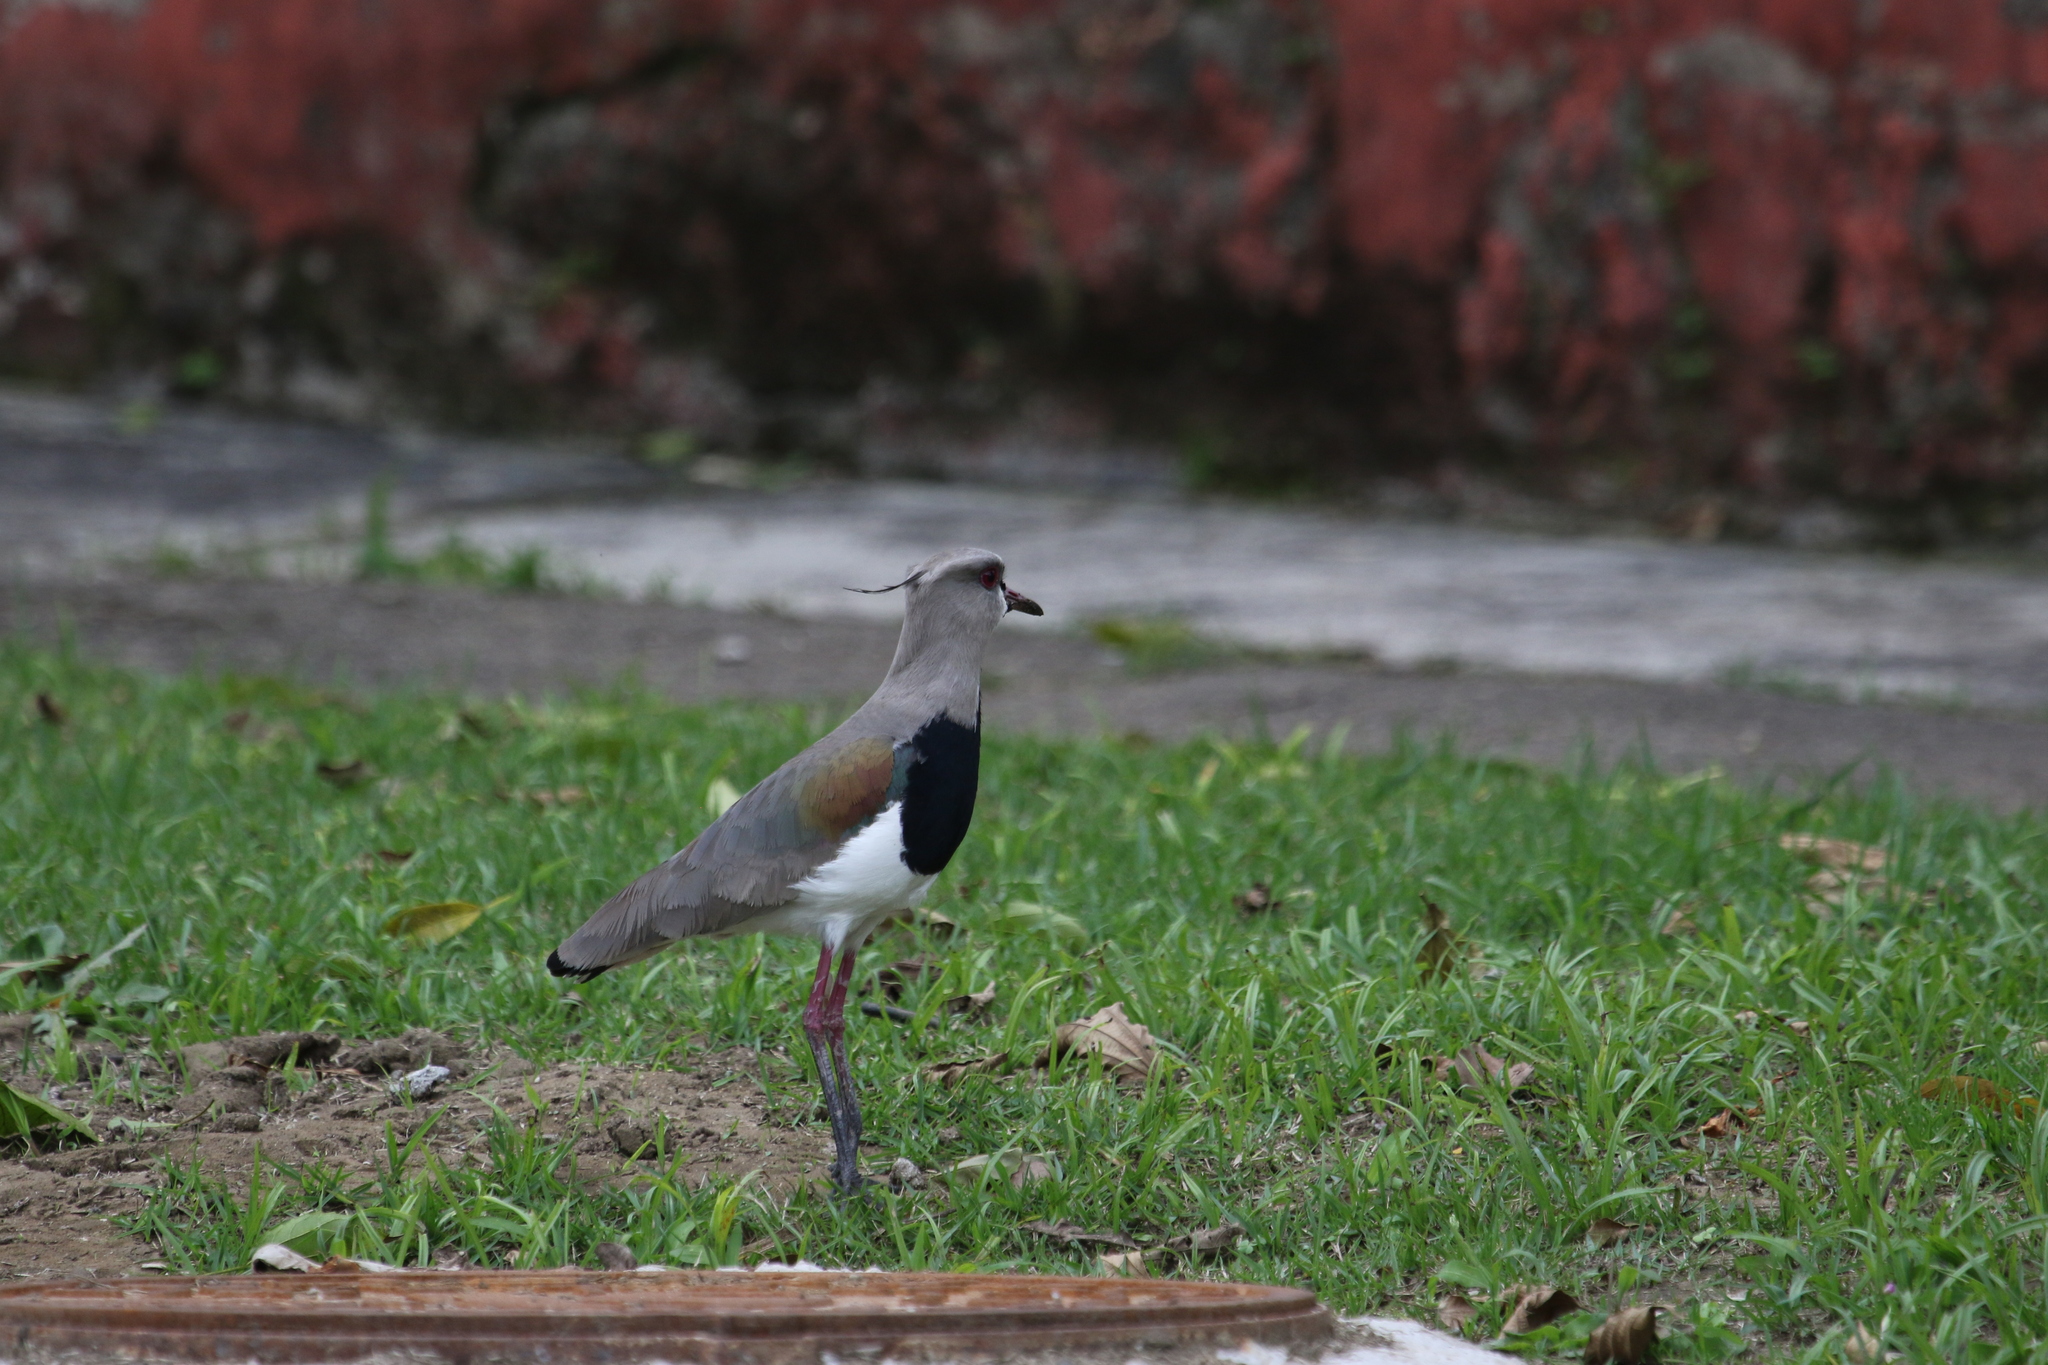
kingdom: Animalia
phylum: Chordata
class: Aves
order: Charadriiformes
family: Charadriidae
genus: Vanellus
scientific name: Vanellus chilensis
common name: Southern lapwing
